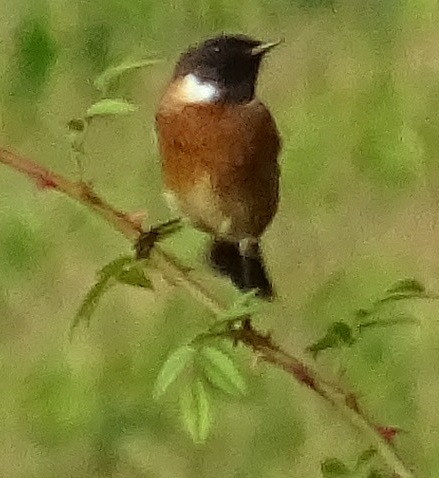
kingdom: Animalia
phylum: Chordata
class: Aves
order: Passeriformes
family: Muscicapidae
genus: Saxicola
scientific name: Saxicola rubicola
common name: European stonechat
